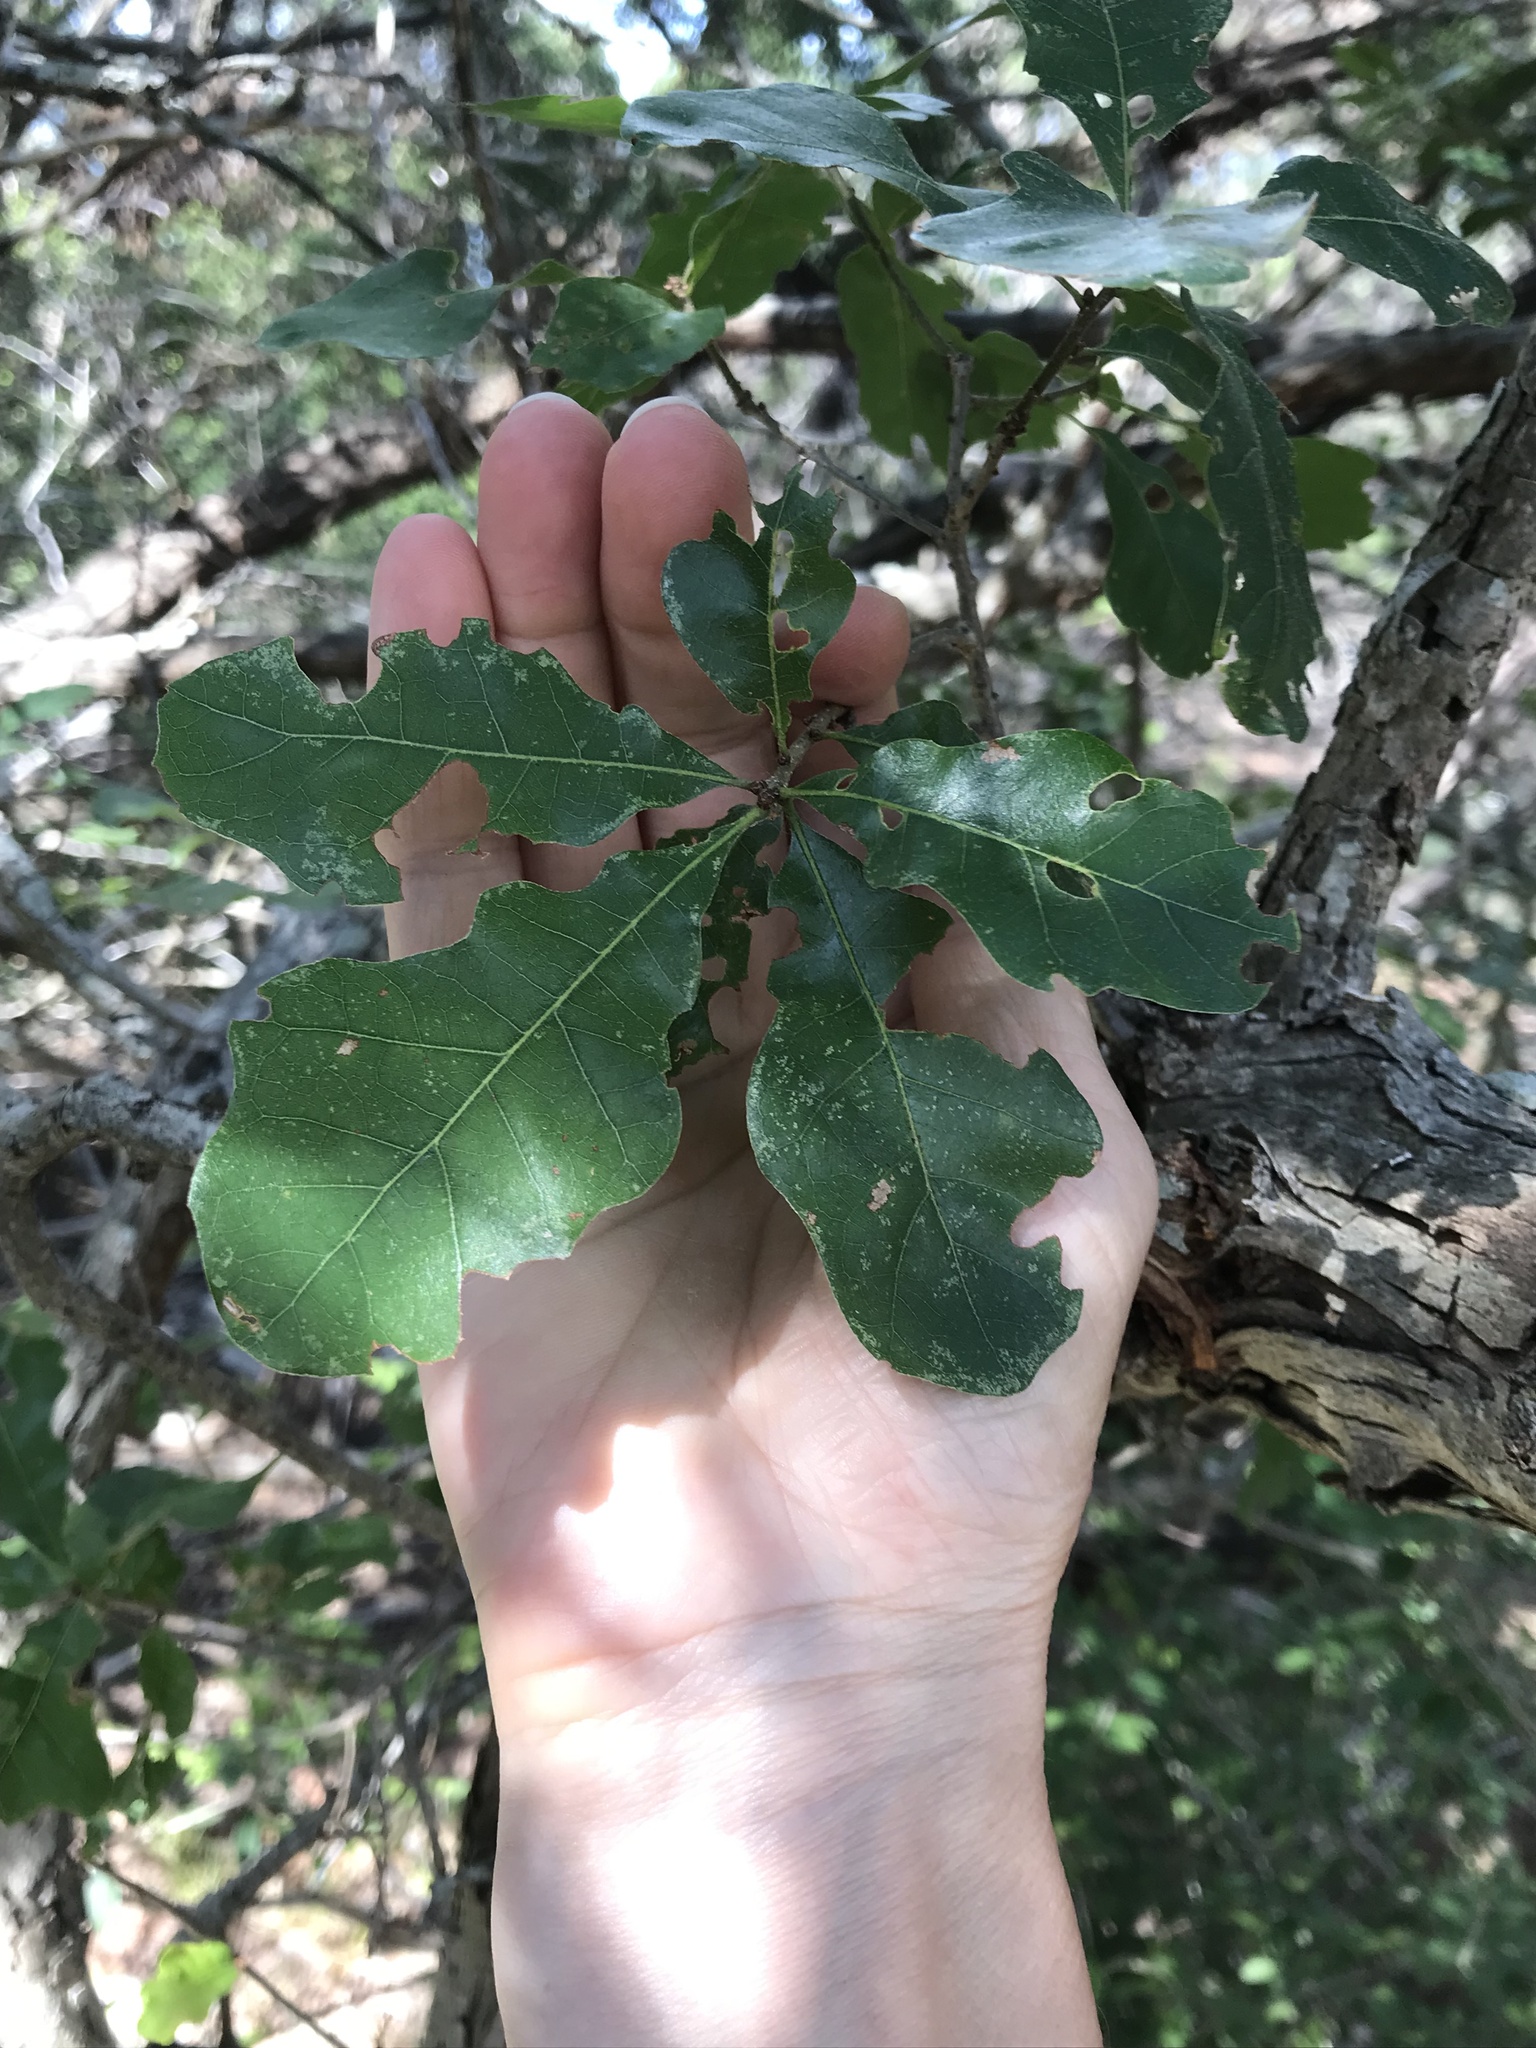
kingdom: Plantae
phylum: Tracheophyta
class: Magnoliopsida
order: Fagales
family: Fagaceae
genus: Quercus
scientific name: Quercus sinuata
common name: Durand oak
